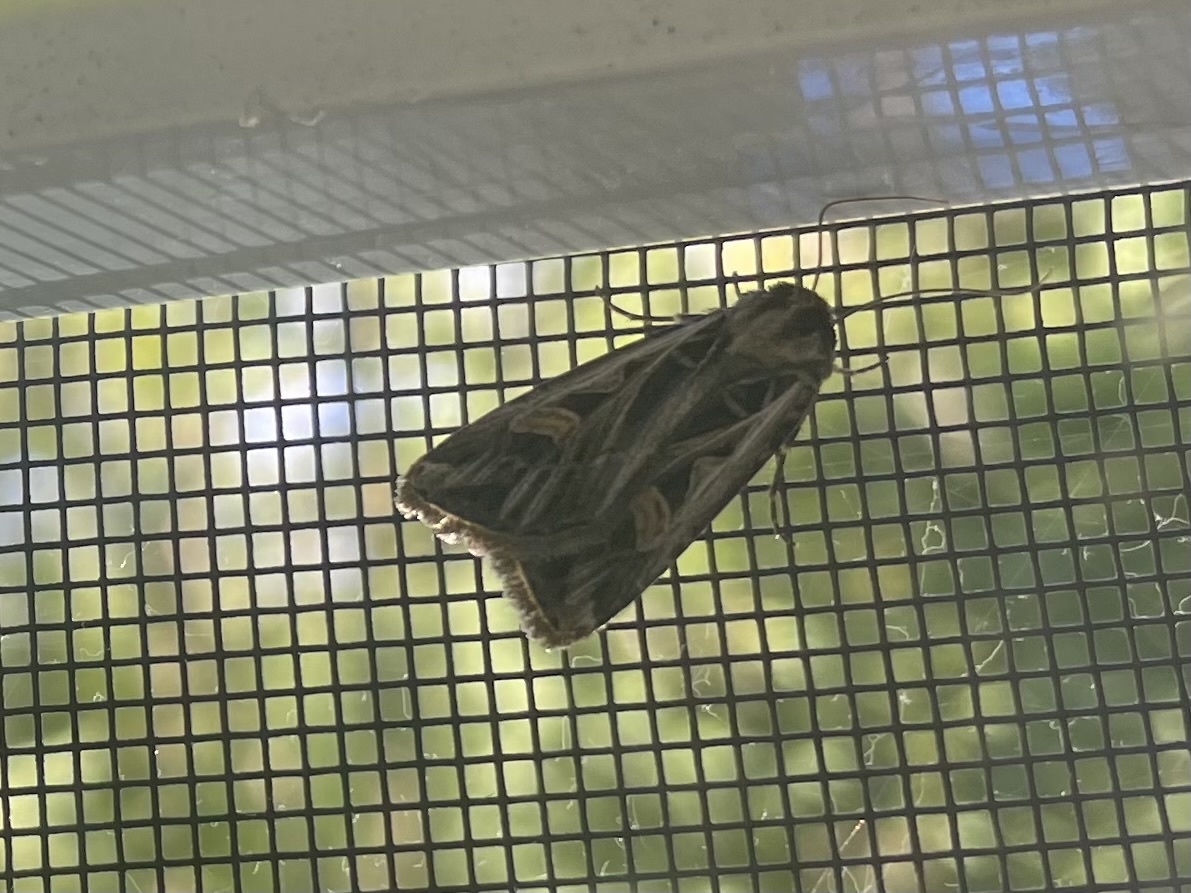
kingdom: Animalia
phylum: Arthropoda
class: Insecta
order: Lepidoptera
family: Noctuidae
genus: Feltia
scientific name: Feltia jaculifera
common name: Dingy cutworm moth
